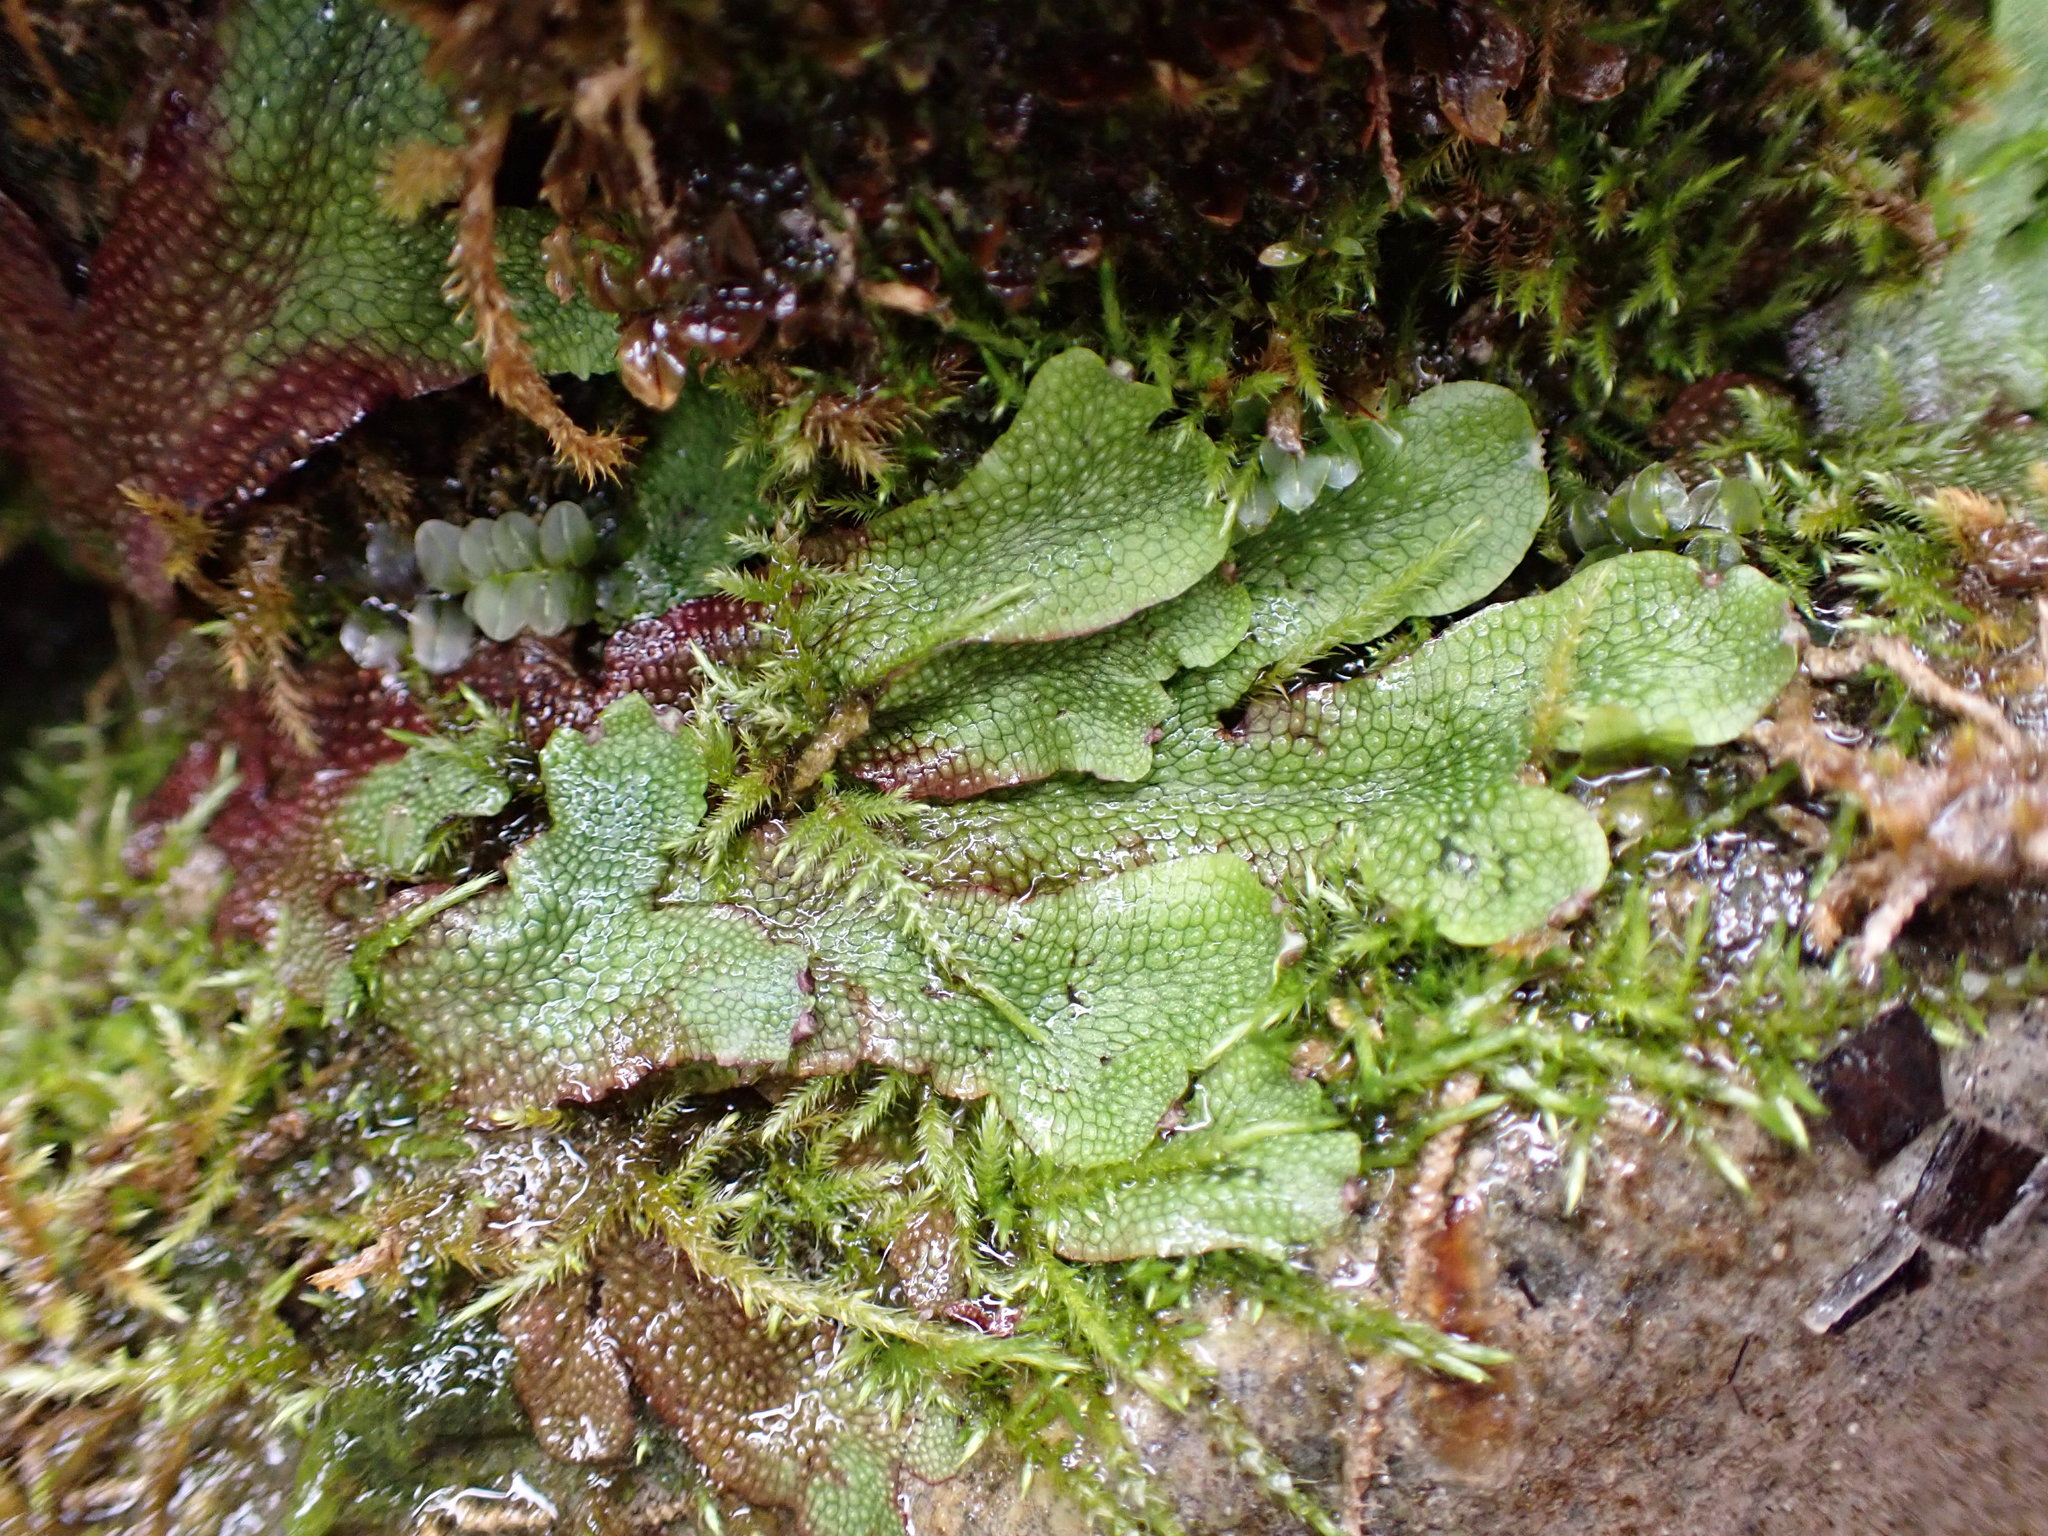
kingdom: Plantae
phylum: Marchantiophyta
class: Marchantiopsida
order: Marchantiales
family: Conocephalaceae
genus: Conocephalum
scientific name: Conocephalum salebrosum
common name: Cat-tongue liverwort
